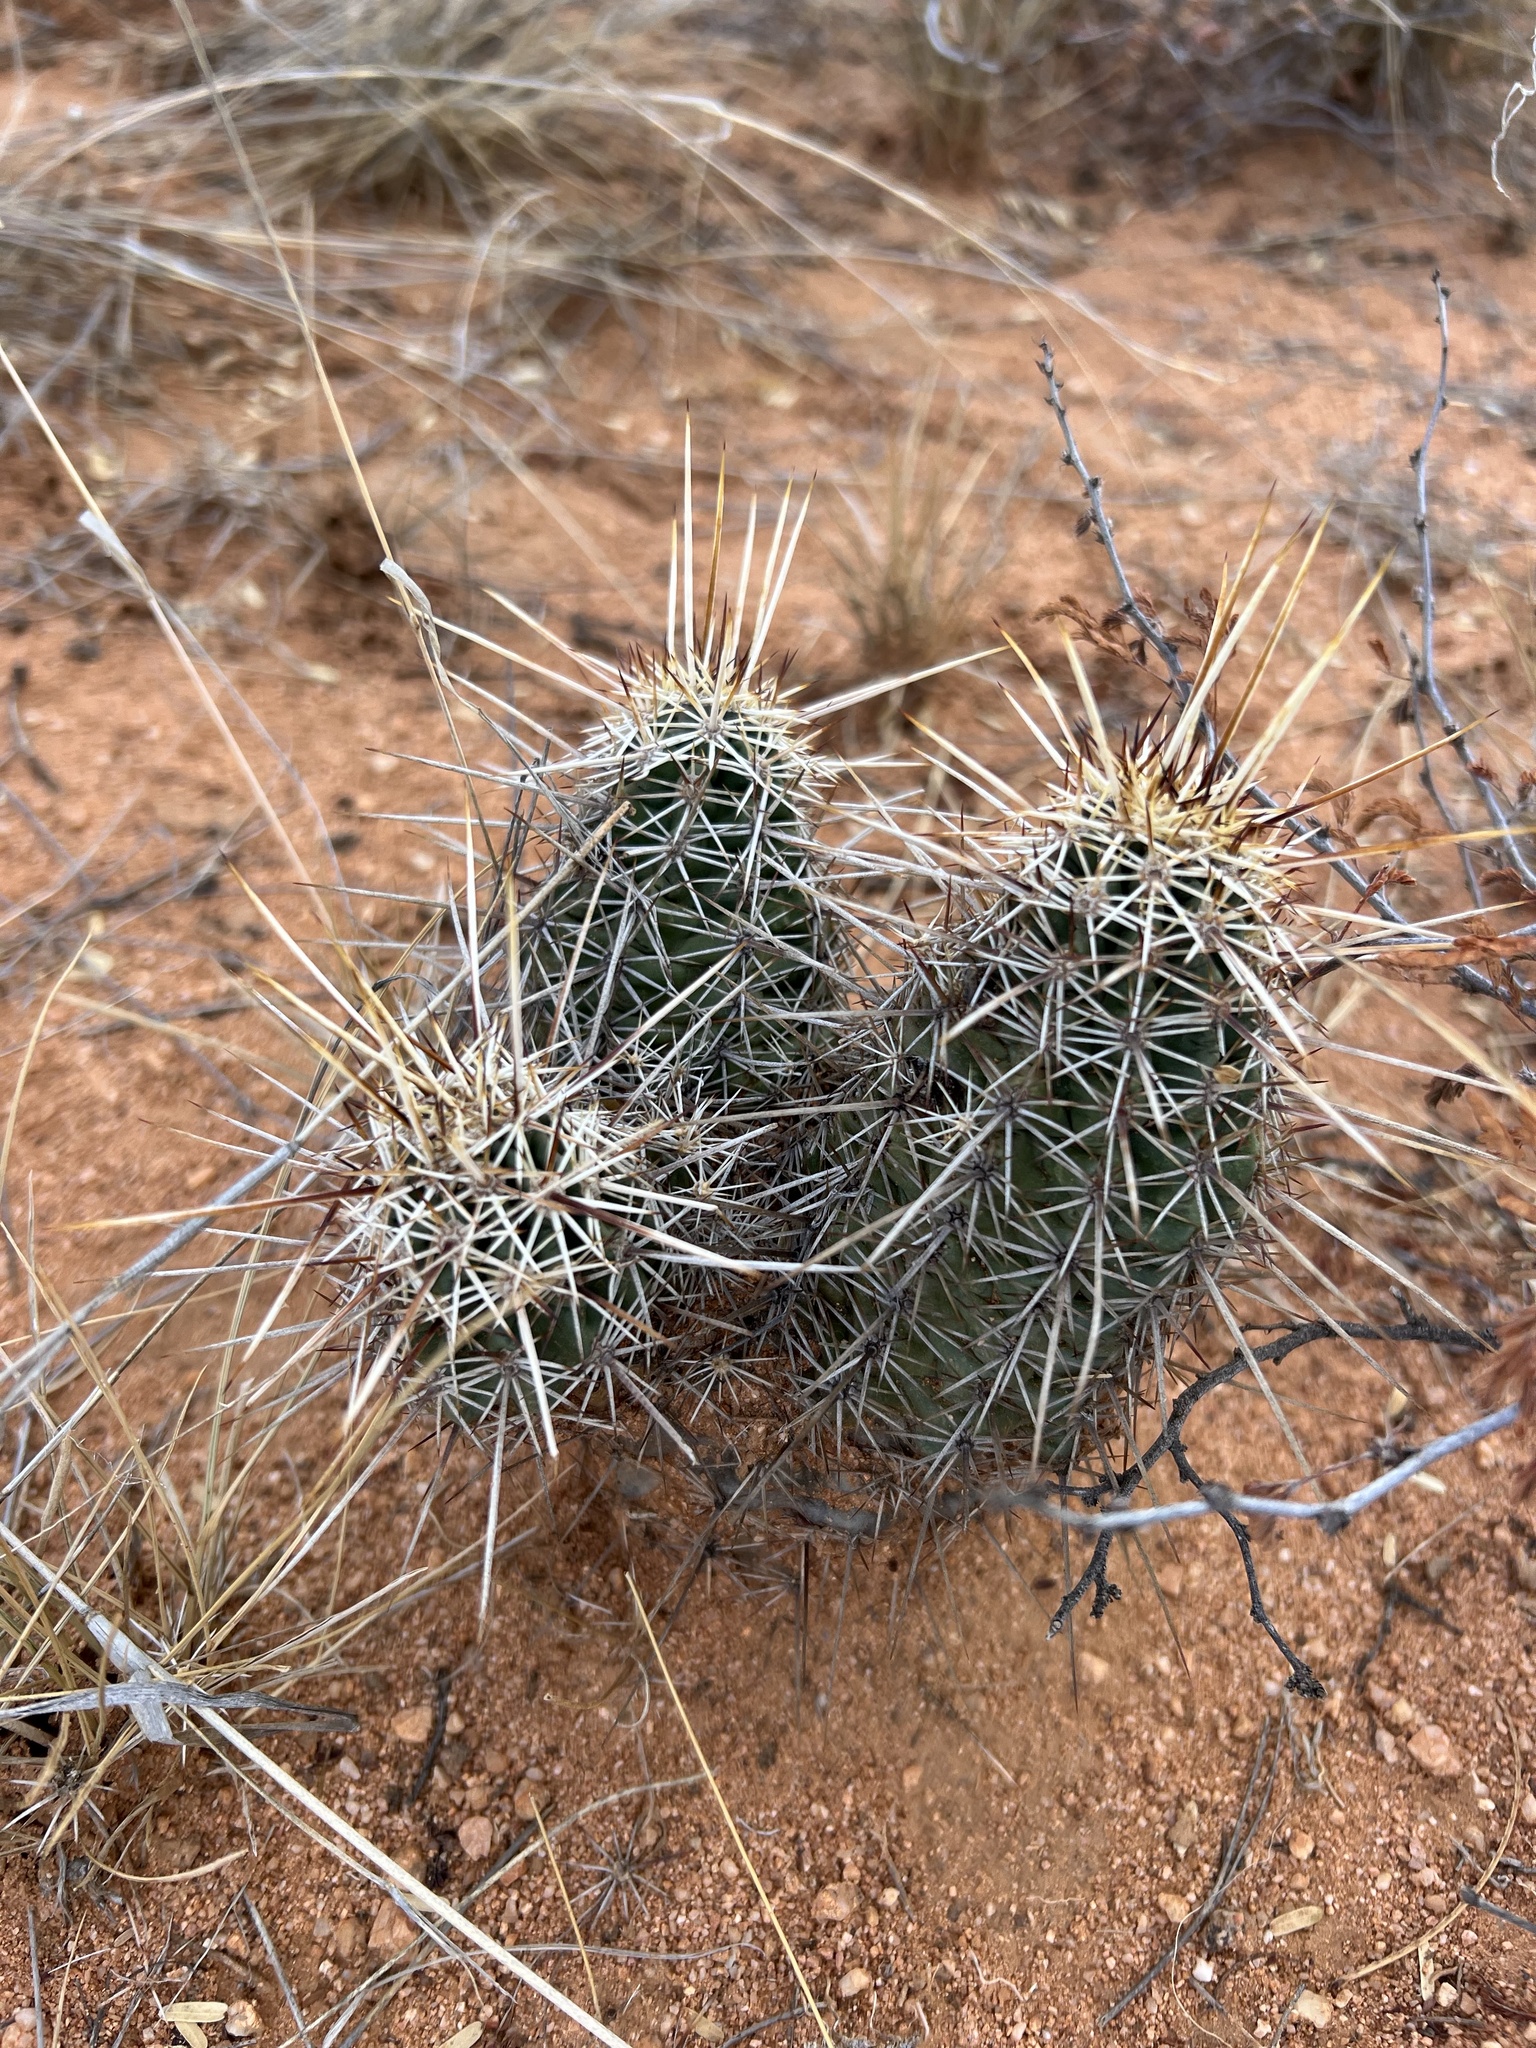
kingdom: Plantae
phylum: Tracheophyta
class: Magnoliopsida
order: Caryophyllales
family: Cactaceae
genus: Echinocereus
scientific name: Echinocereus fasciculatus
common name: Bundle hedgehog
